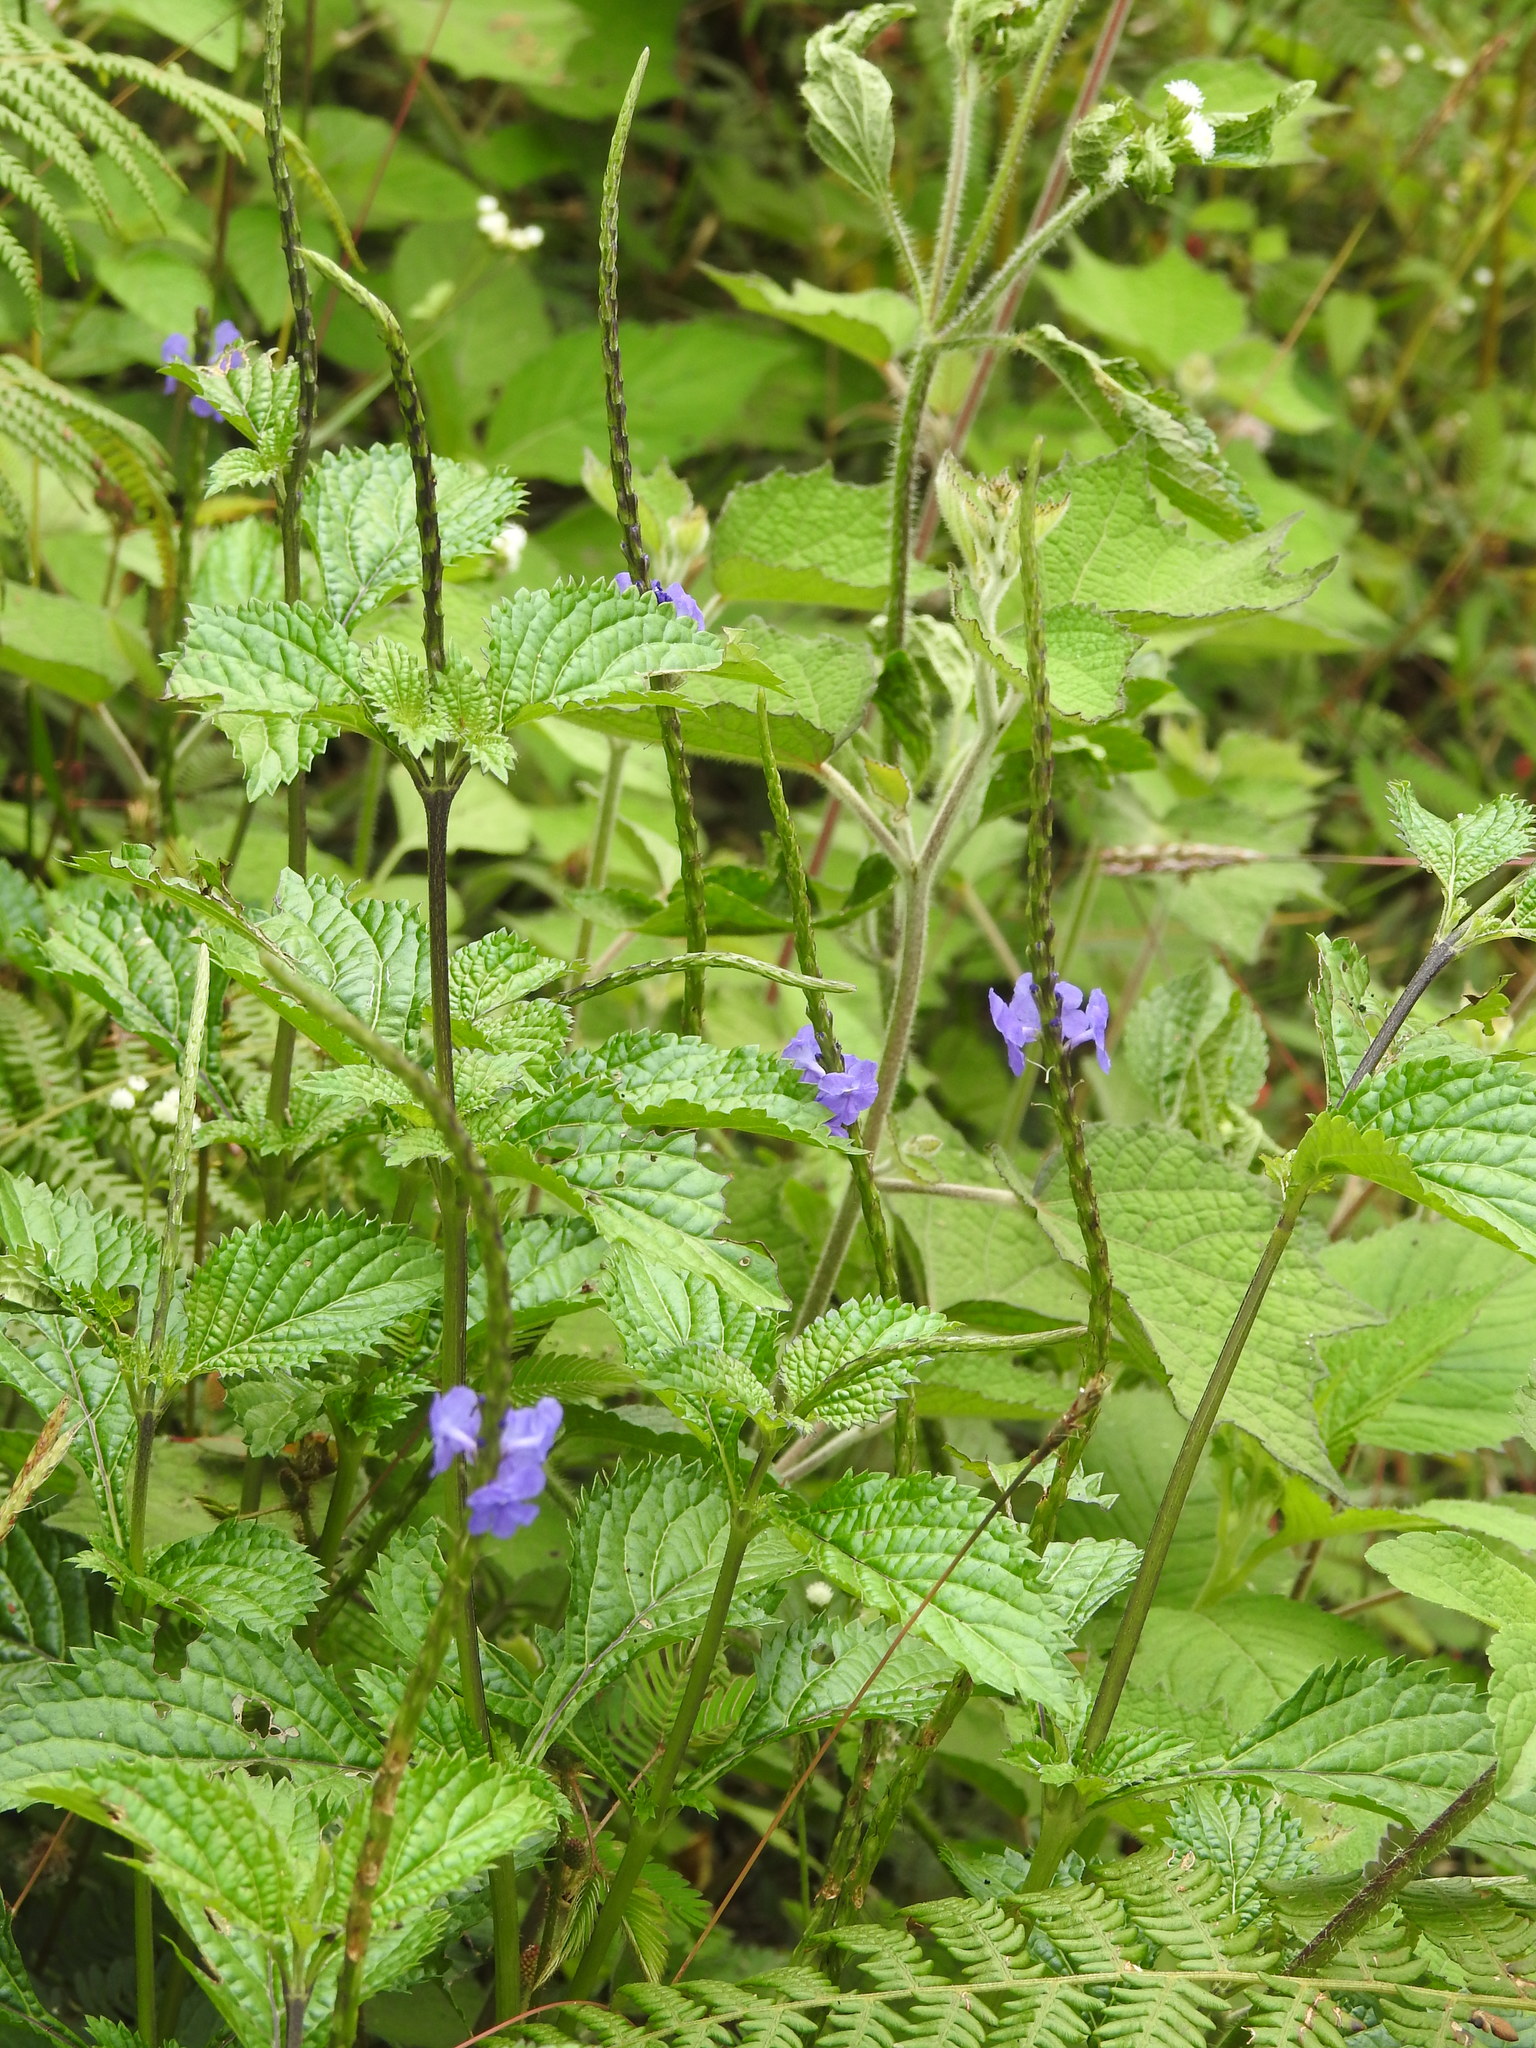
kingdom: Plantae
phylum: Tracheophyta
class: Magnoliopsida
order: Lamiales
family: Verbenaceae
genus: Stachytarpheta
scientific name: Stachytarpheta cayennensis
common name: Cayenne porterweed
